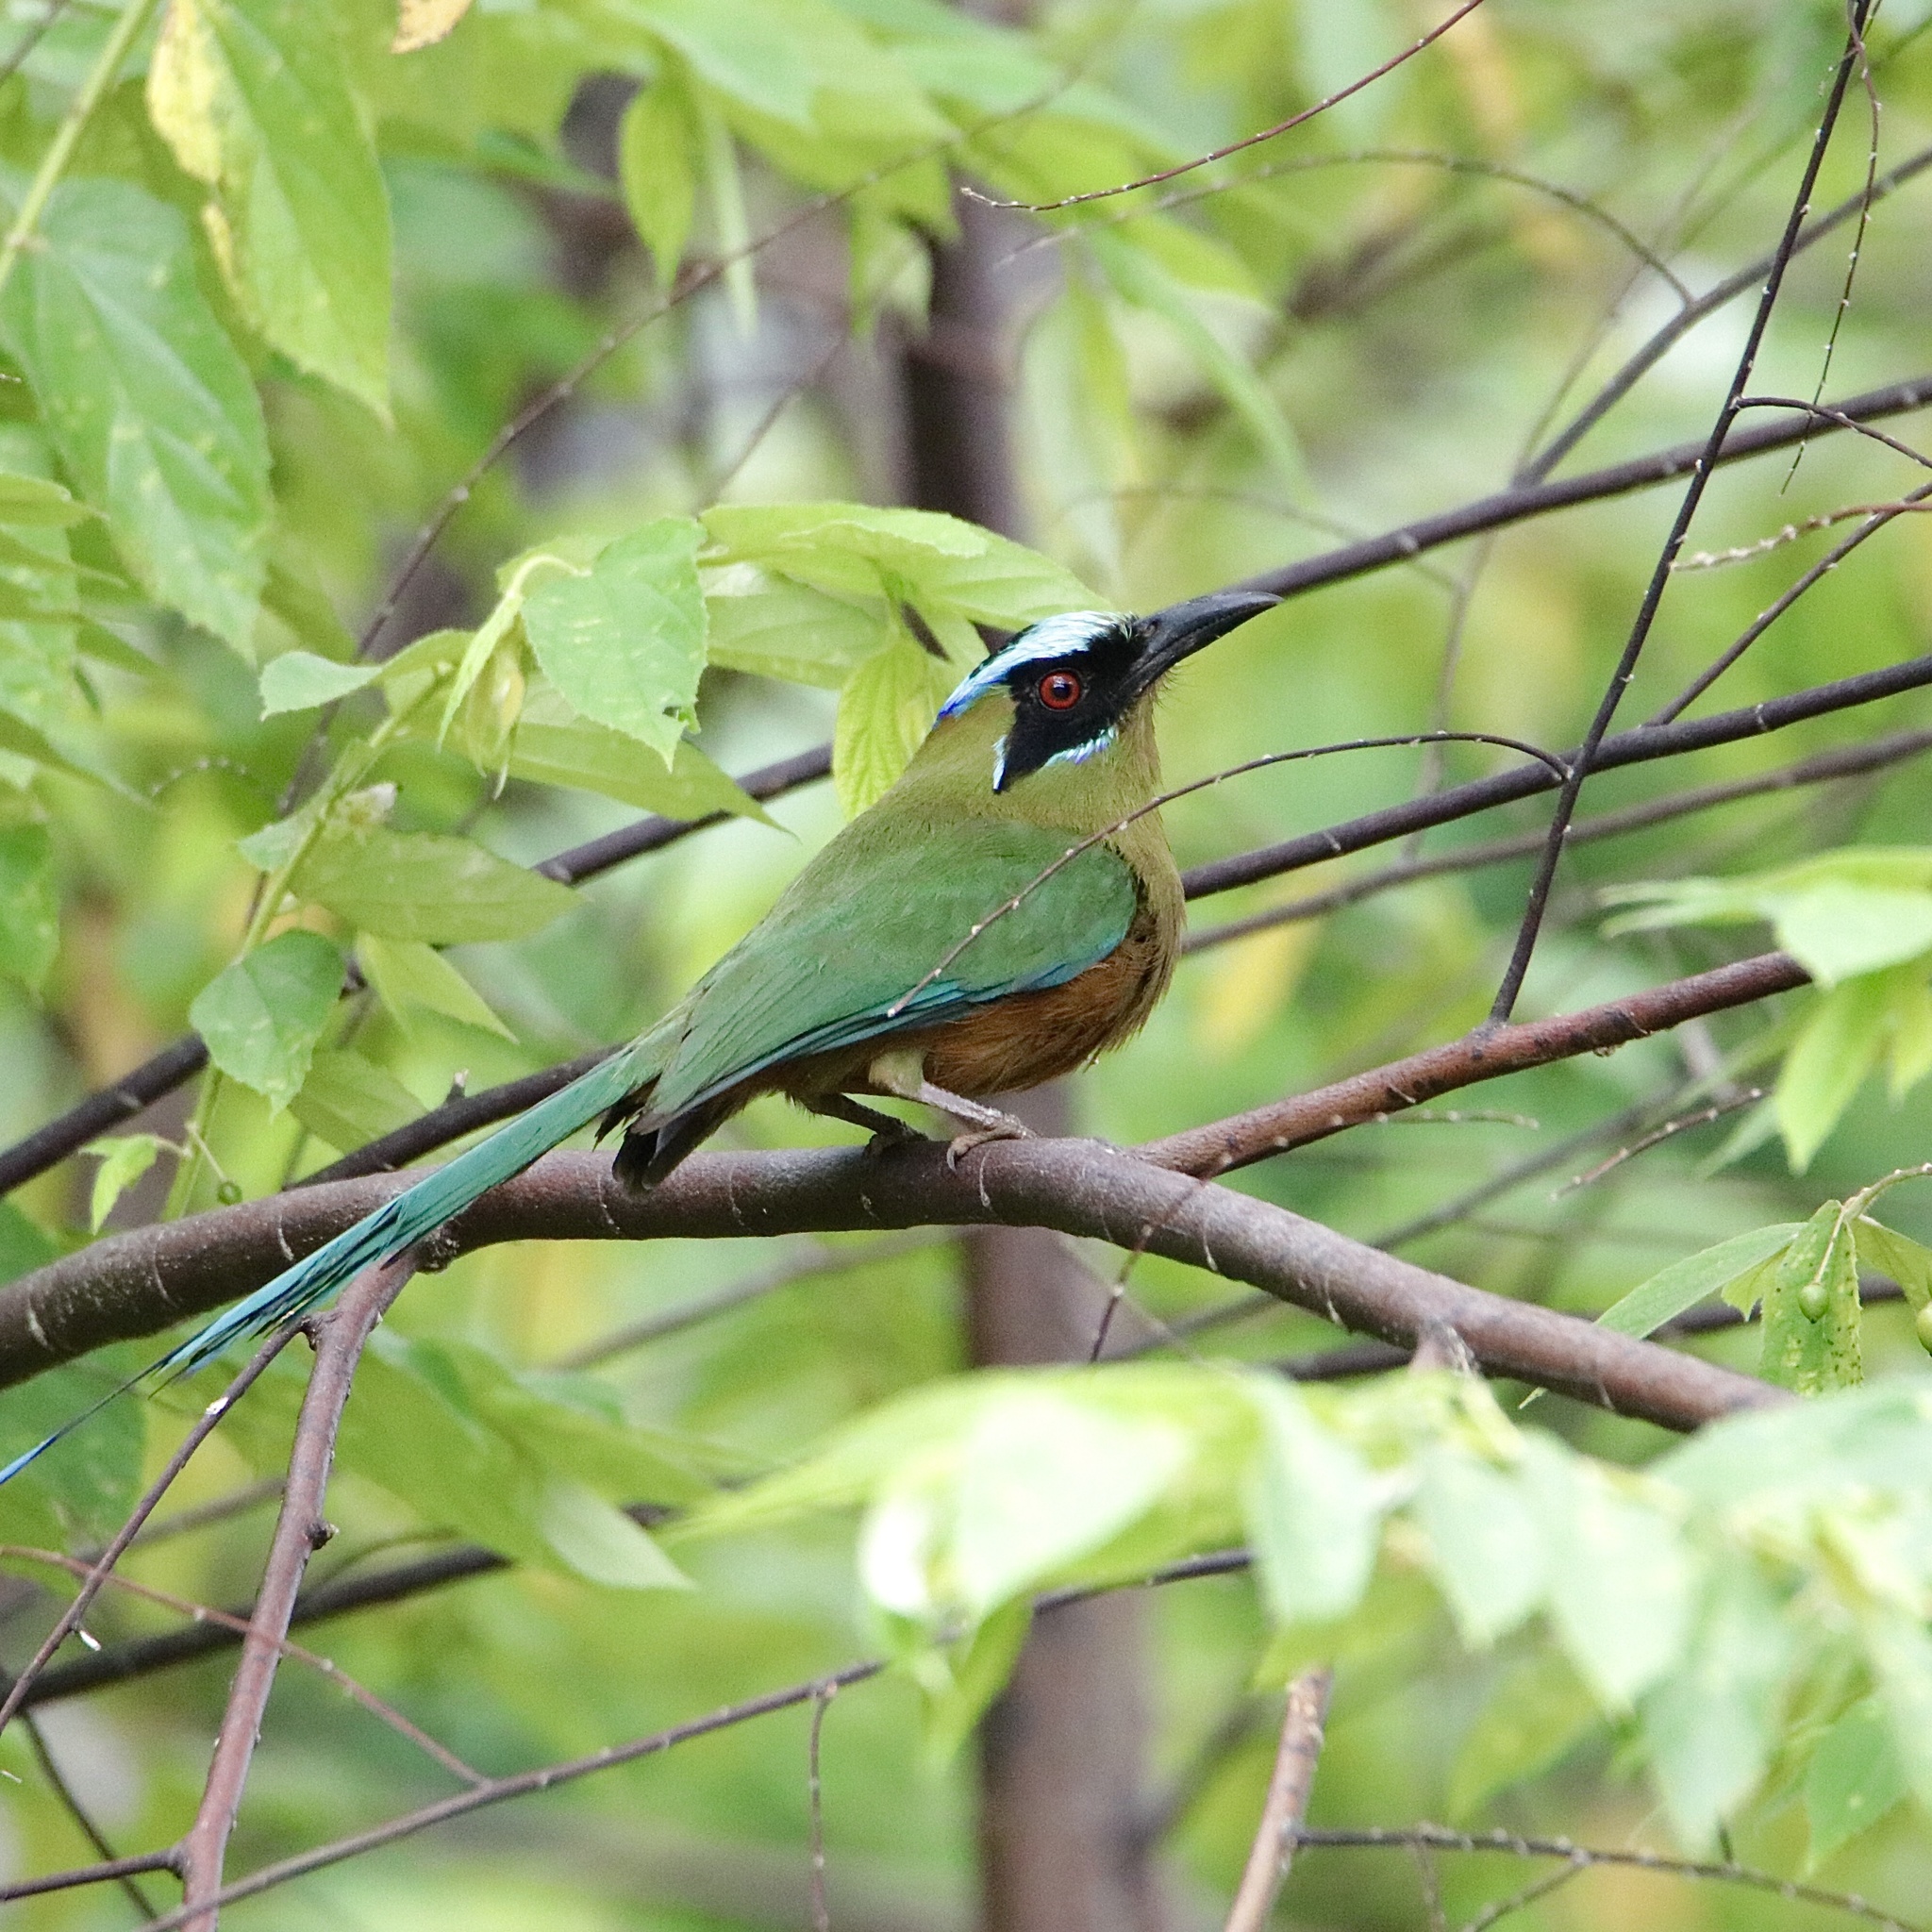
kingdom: Animalia
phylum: Chordata
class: Aves
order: Coraciiformes
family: Momotidae
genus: Momotus
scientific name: Momotus subrufescens
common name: Whooping motmot
